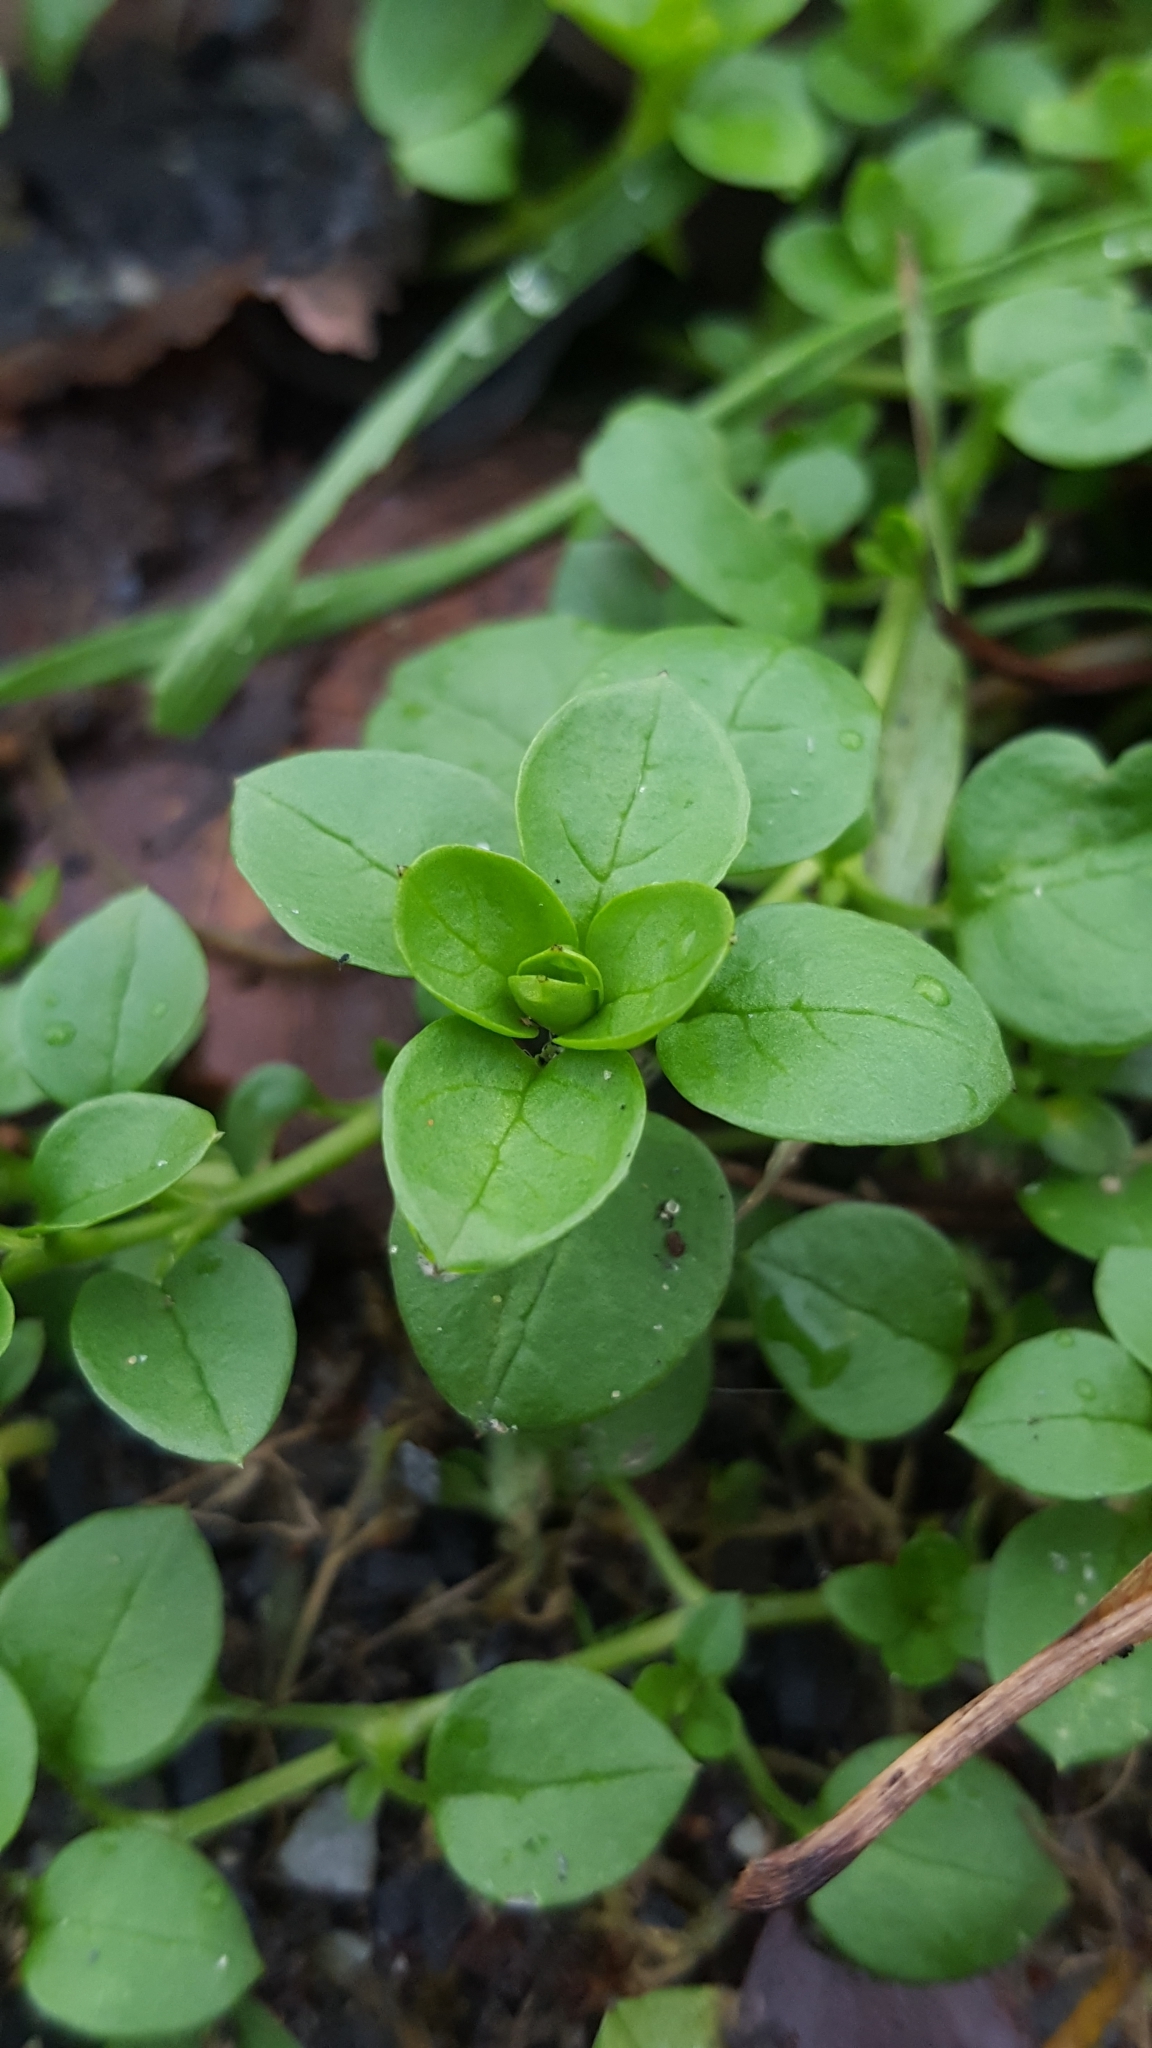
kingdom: Plantae
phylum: Tracheophyta
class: Magnoliopsida
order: Caryophyllales
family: Caryophyllaceae
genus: Stellaria
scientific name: Stellaria media
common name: Common chickweed
